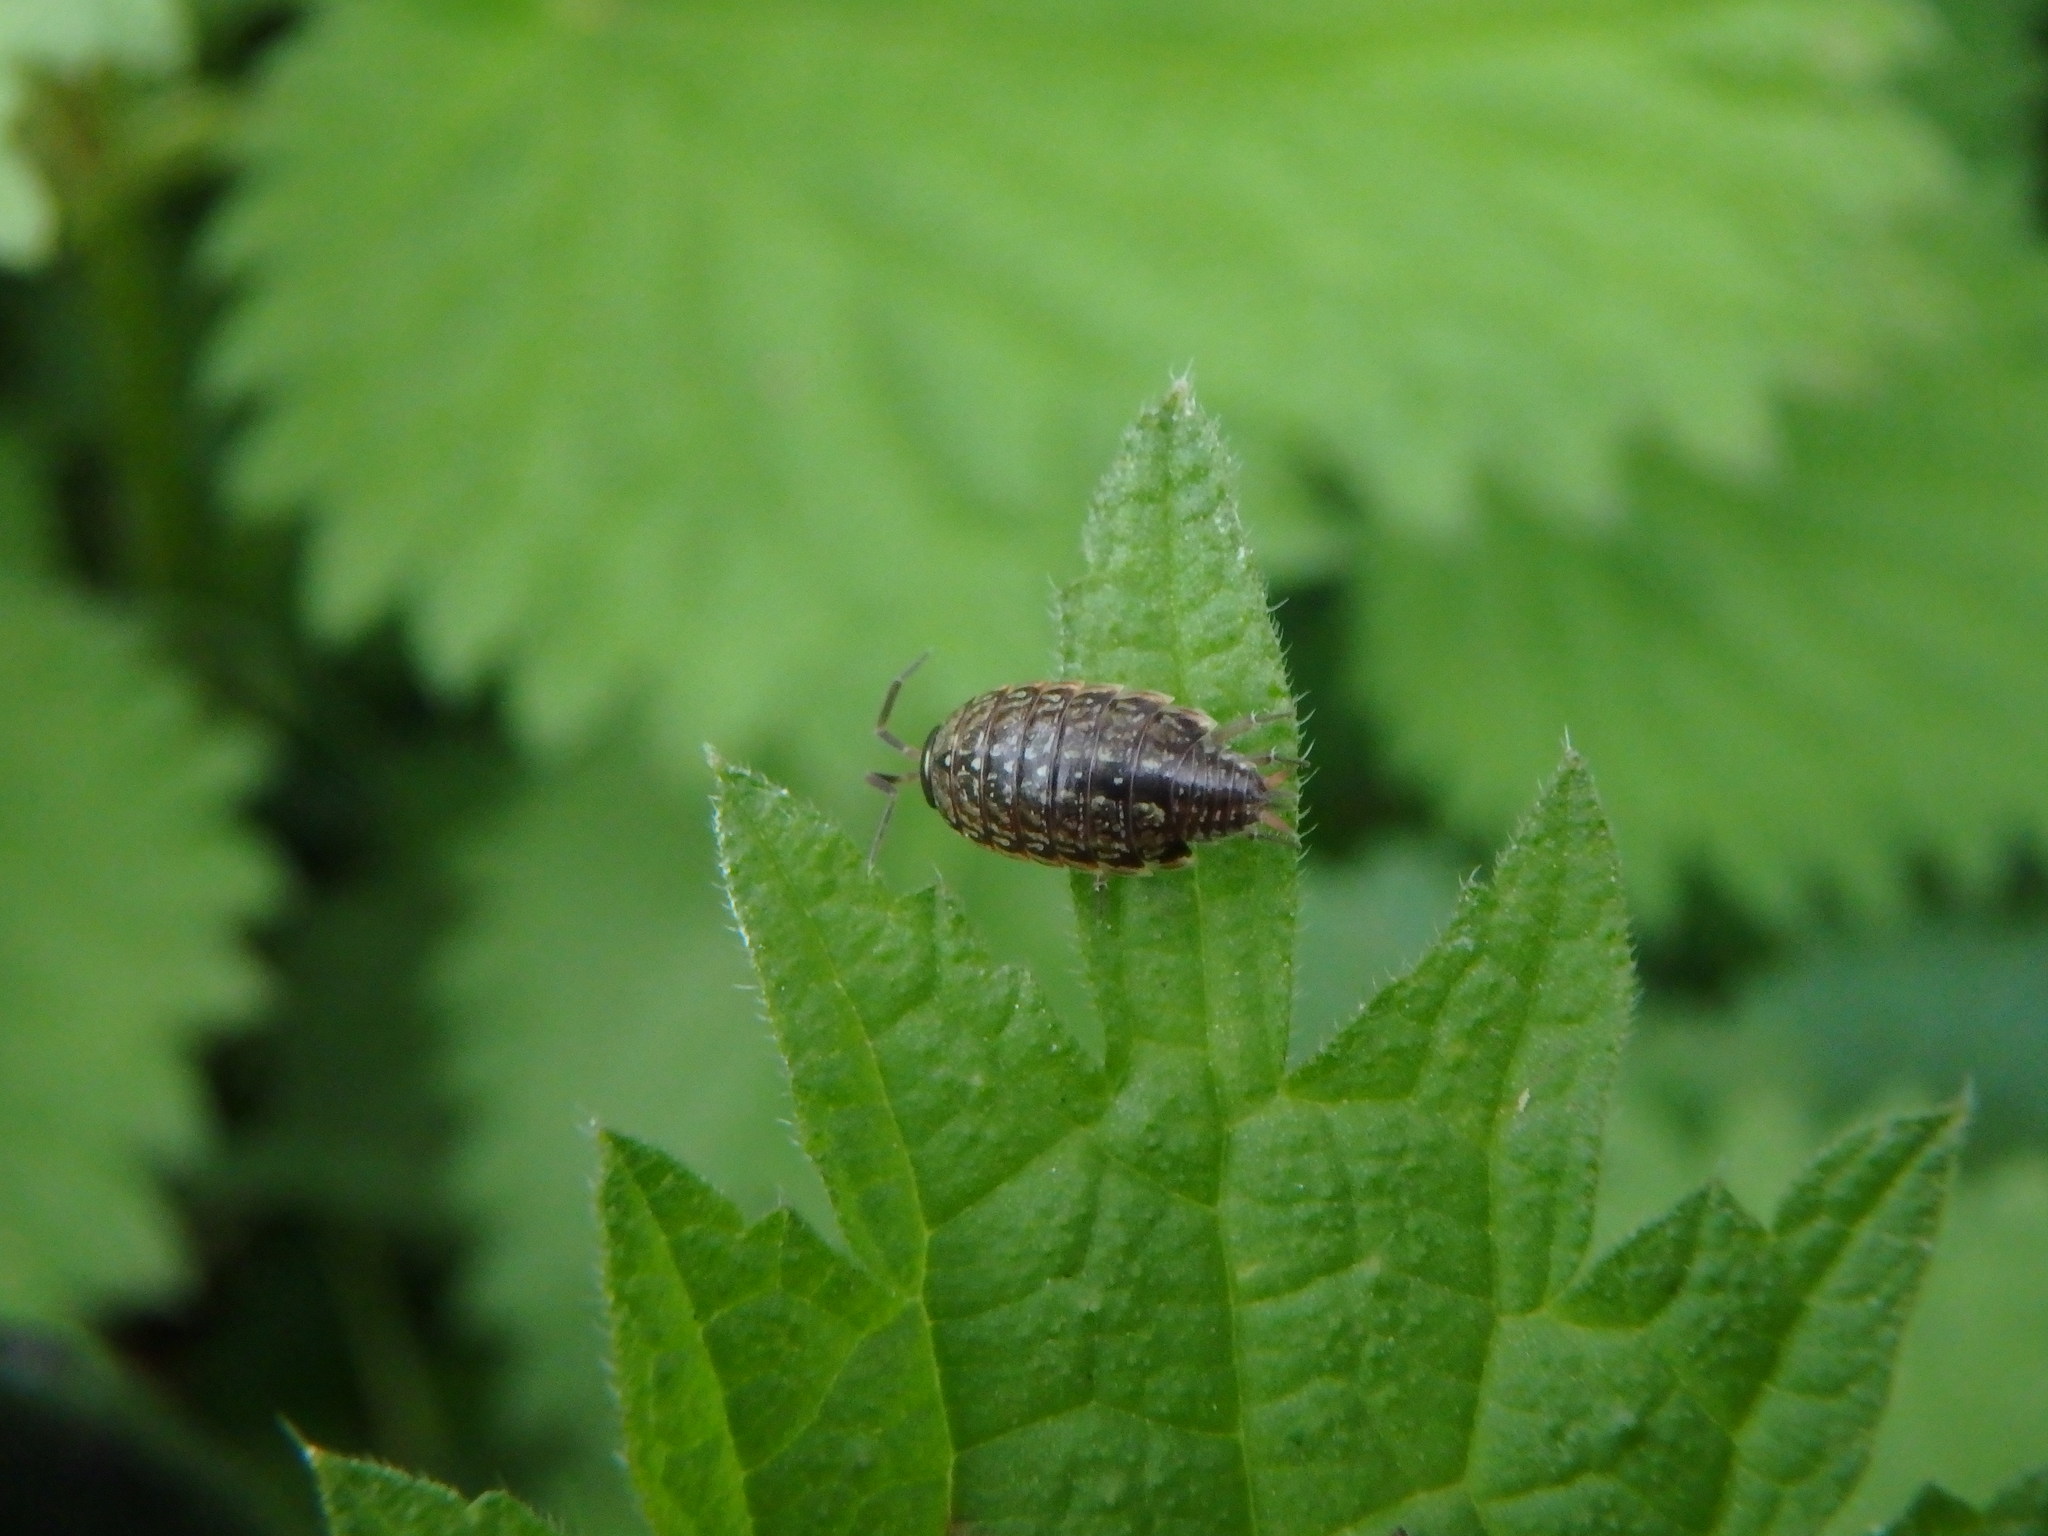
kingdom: Animalia
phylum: Arthropoda
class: Malacostraca
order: Isopoda
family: Philosciidae
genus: Philoscia
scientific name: Philoscia muscorum
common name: Common striped woodlouse
